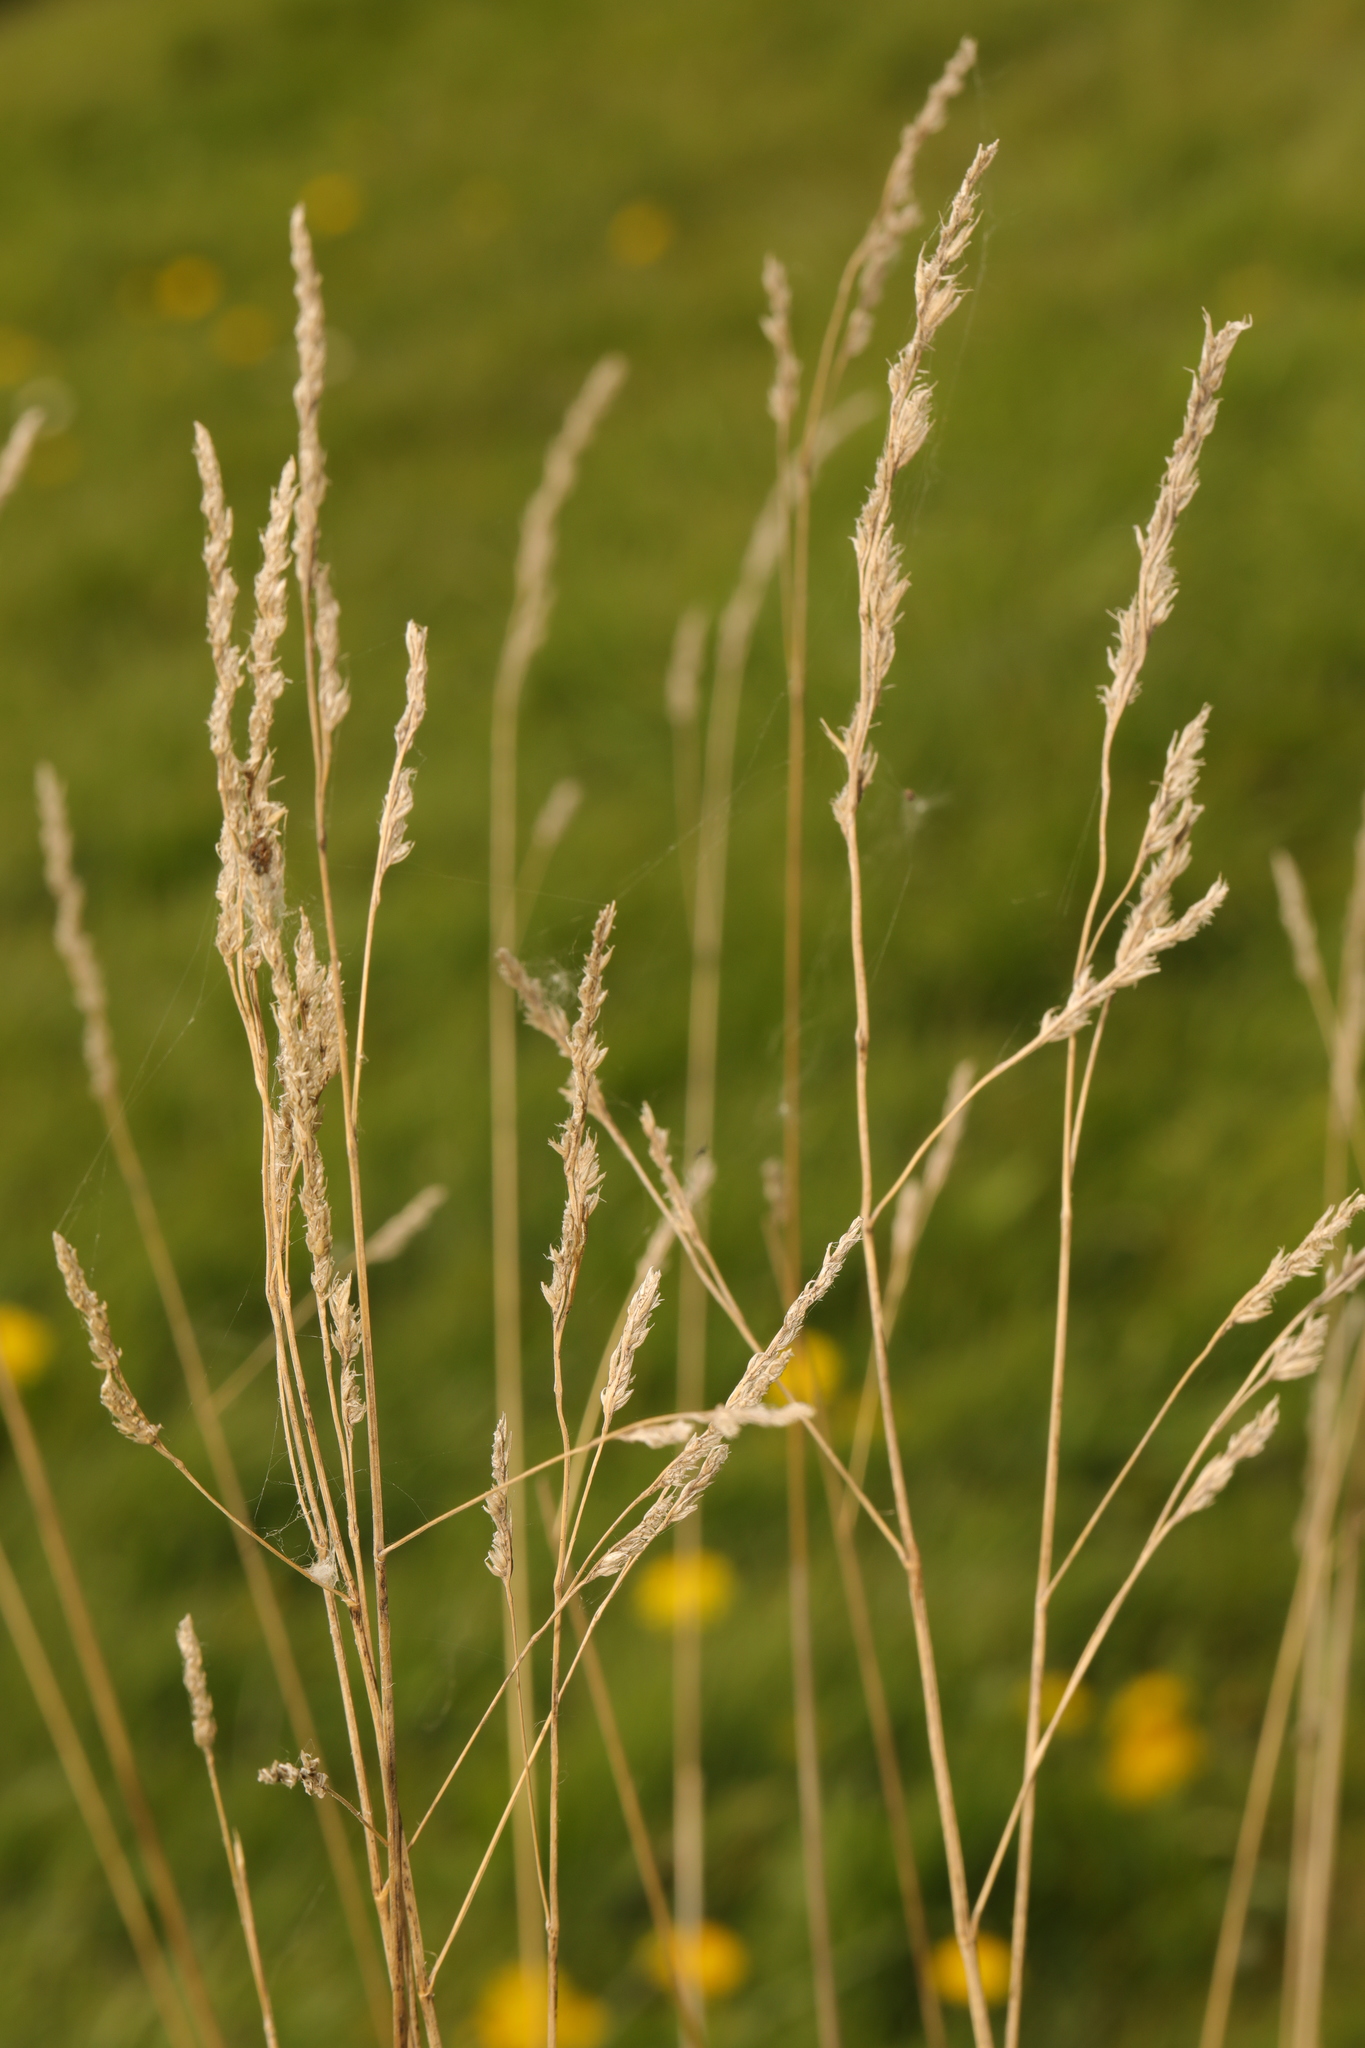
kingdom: Plantae
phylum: Tracheophyta
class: Liliopsida
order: Poales
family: Poaceae
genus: Dactylis
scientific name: Dactylis glomerata
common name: Orchardgrass
